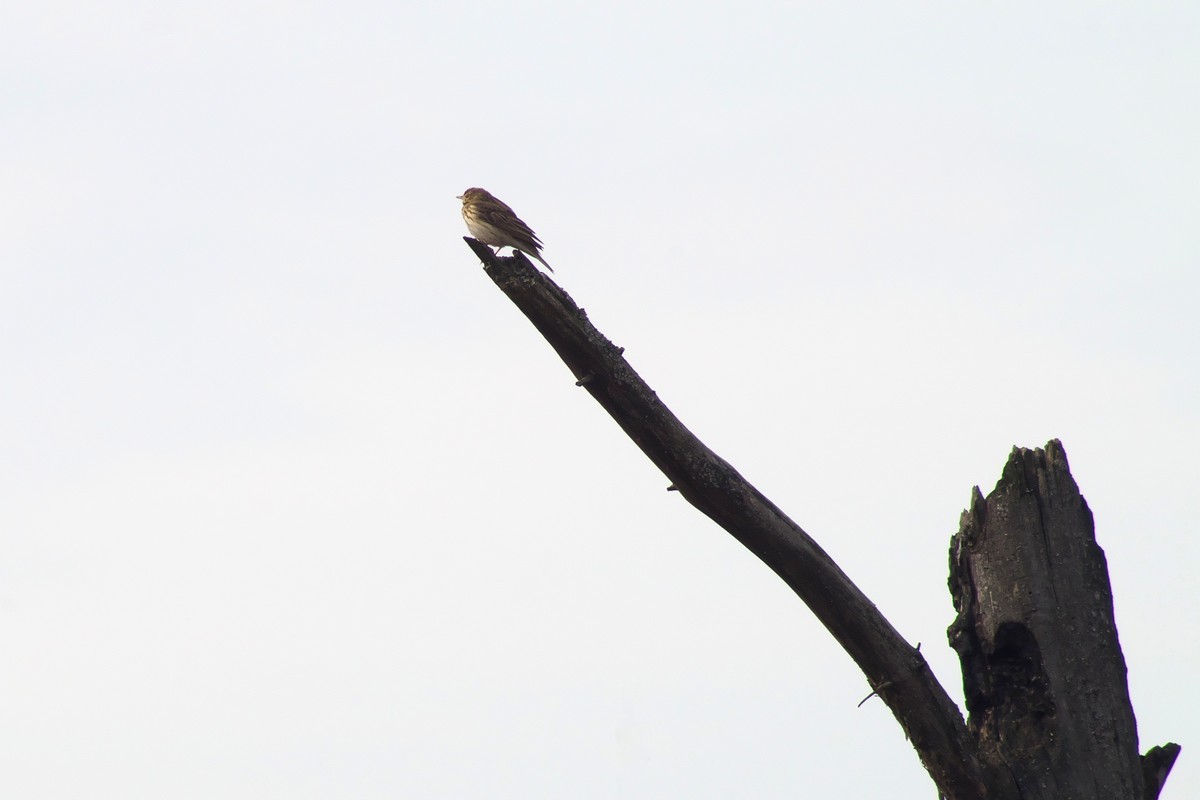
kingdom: Animalia
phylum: Chordata
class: Aves
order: Passeriformes
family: Motacillidae
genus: Anthus
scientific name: Anthus trivialis
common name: Tree pipit
